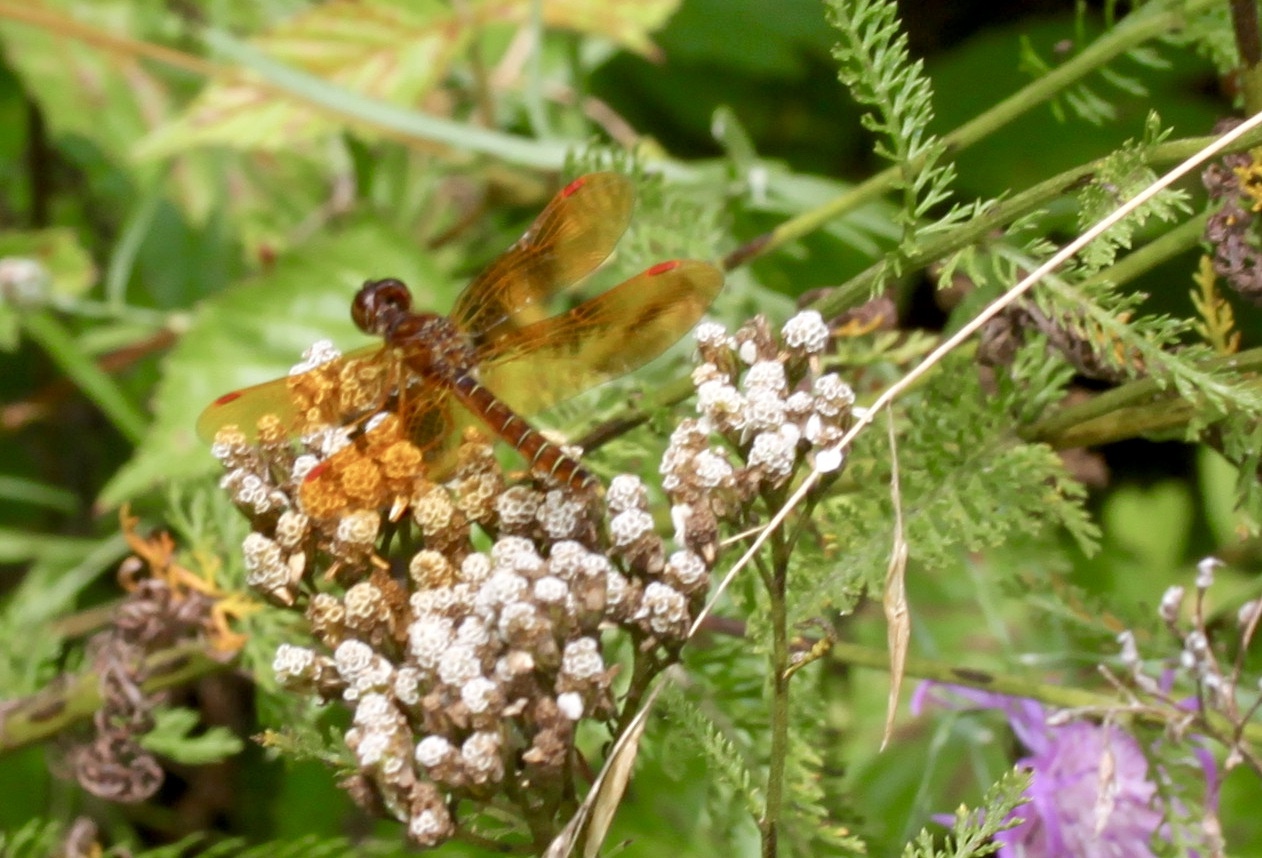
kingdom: Animalia
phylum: Arthropoda
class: Insecta
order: Odonata
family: Libellulidae
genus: Perithemis
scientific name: Perithemis tenera
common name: Eastern amberwing
